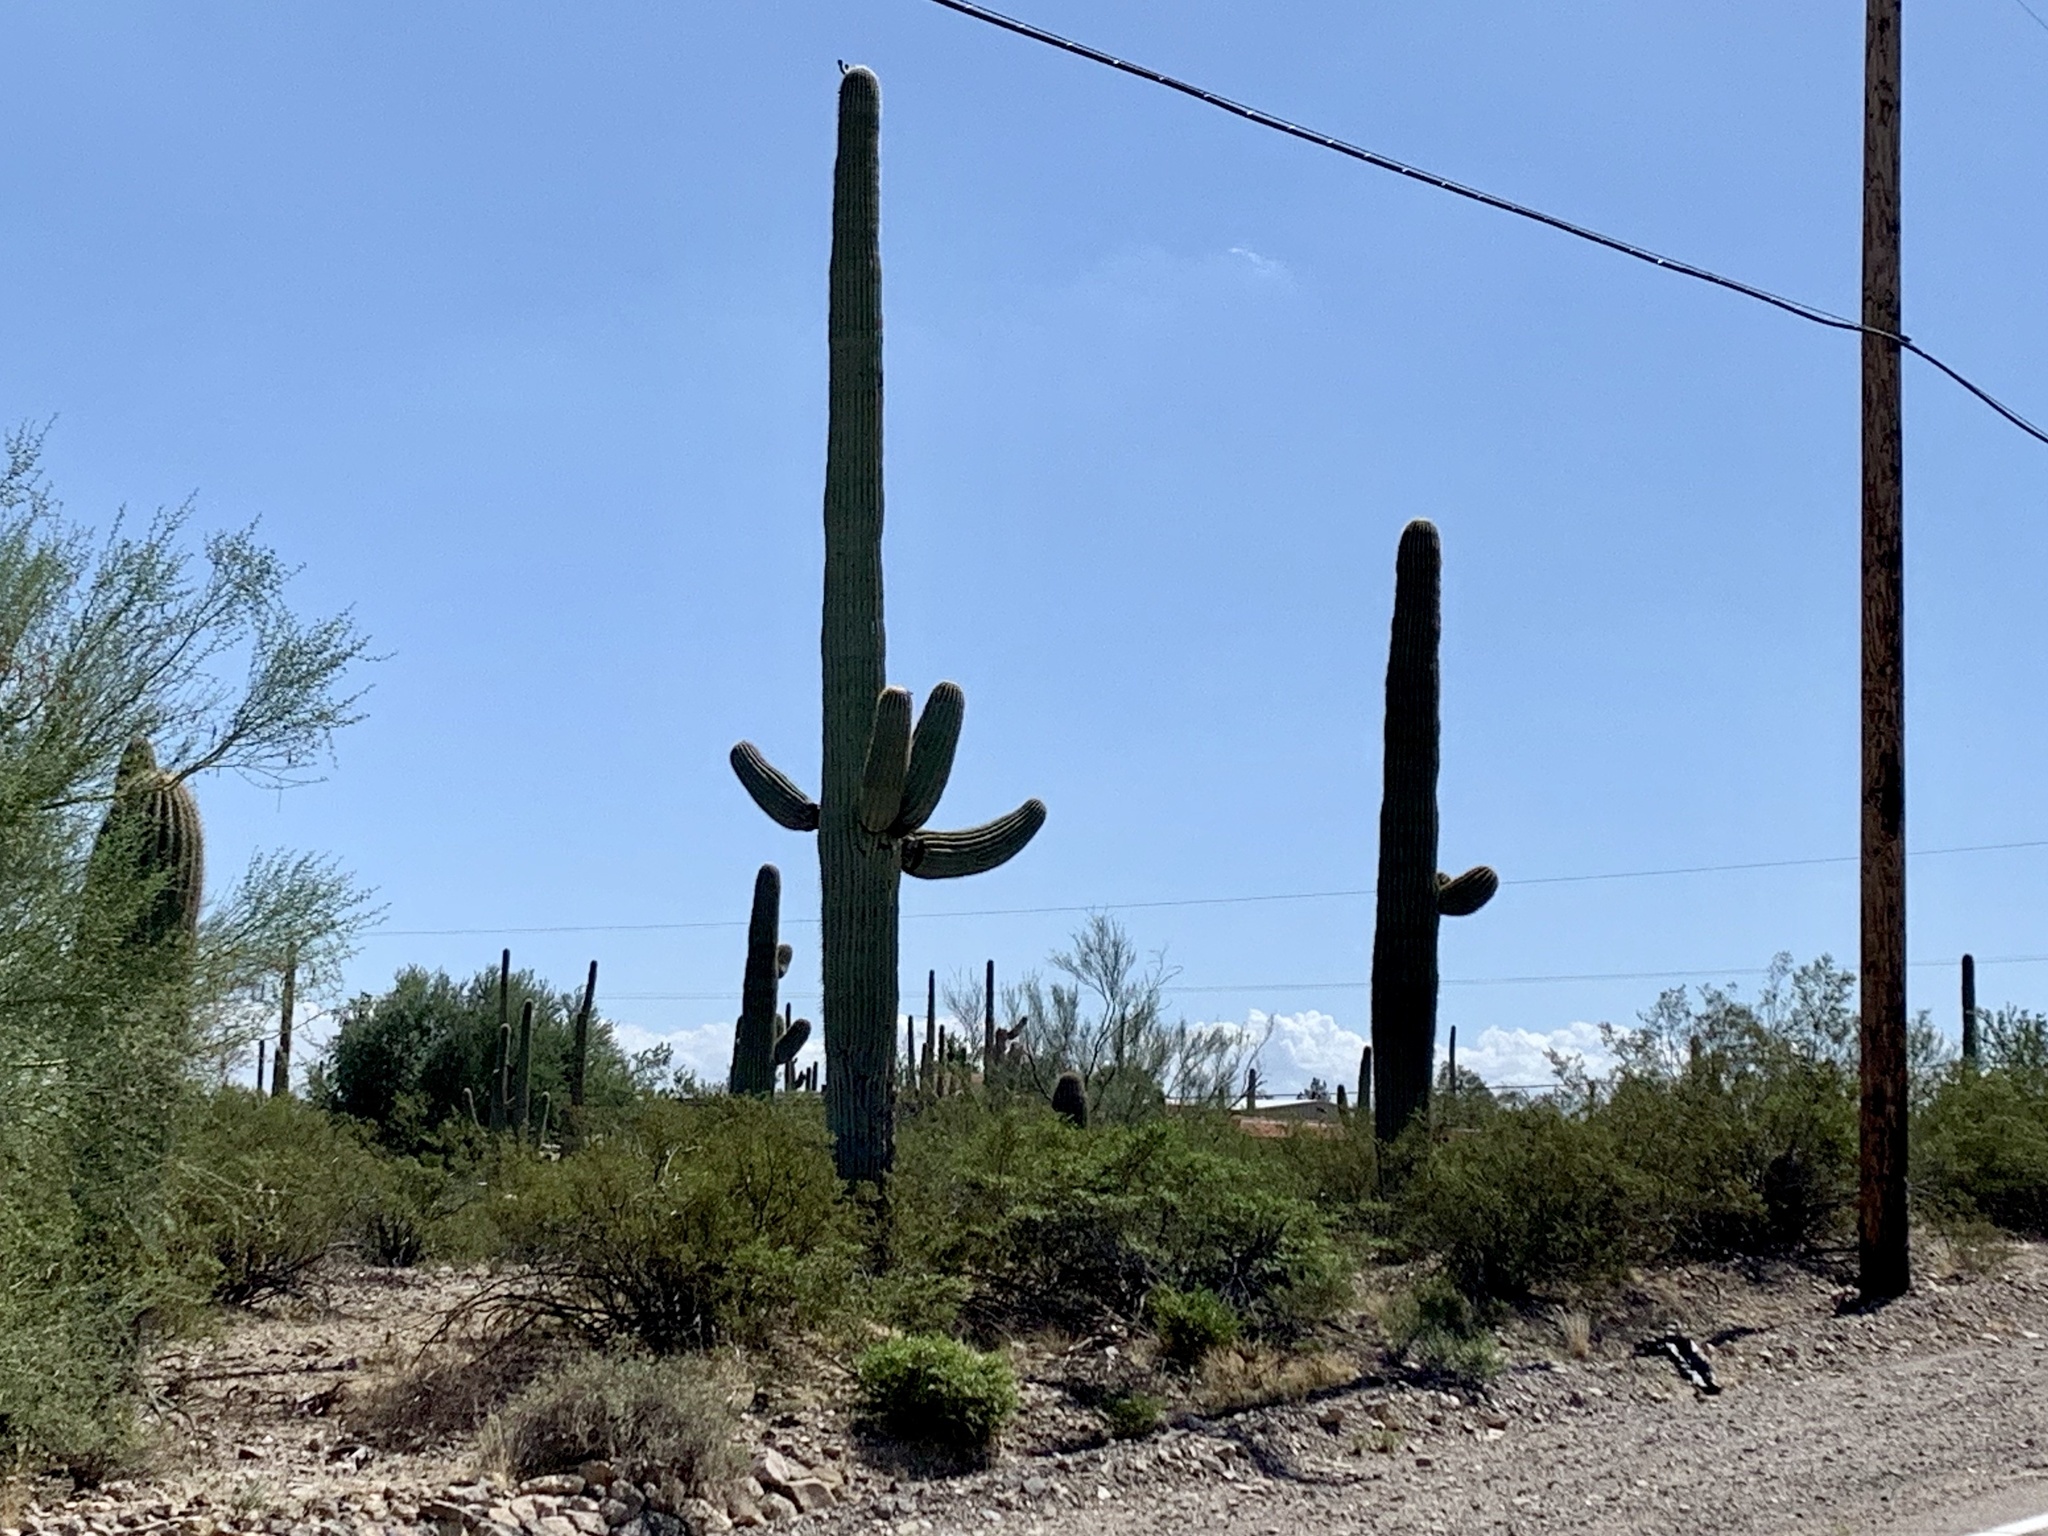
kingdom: Plantae
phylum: Tracheophyta
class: Magnoliopsida
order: Caryophyllales
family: Cactaceae
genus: Carnegiea
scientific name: Carnegiea gigantea
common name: Saguaro
